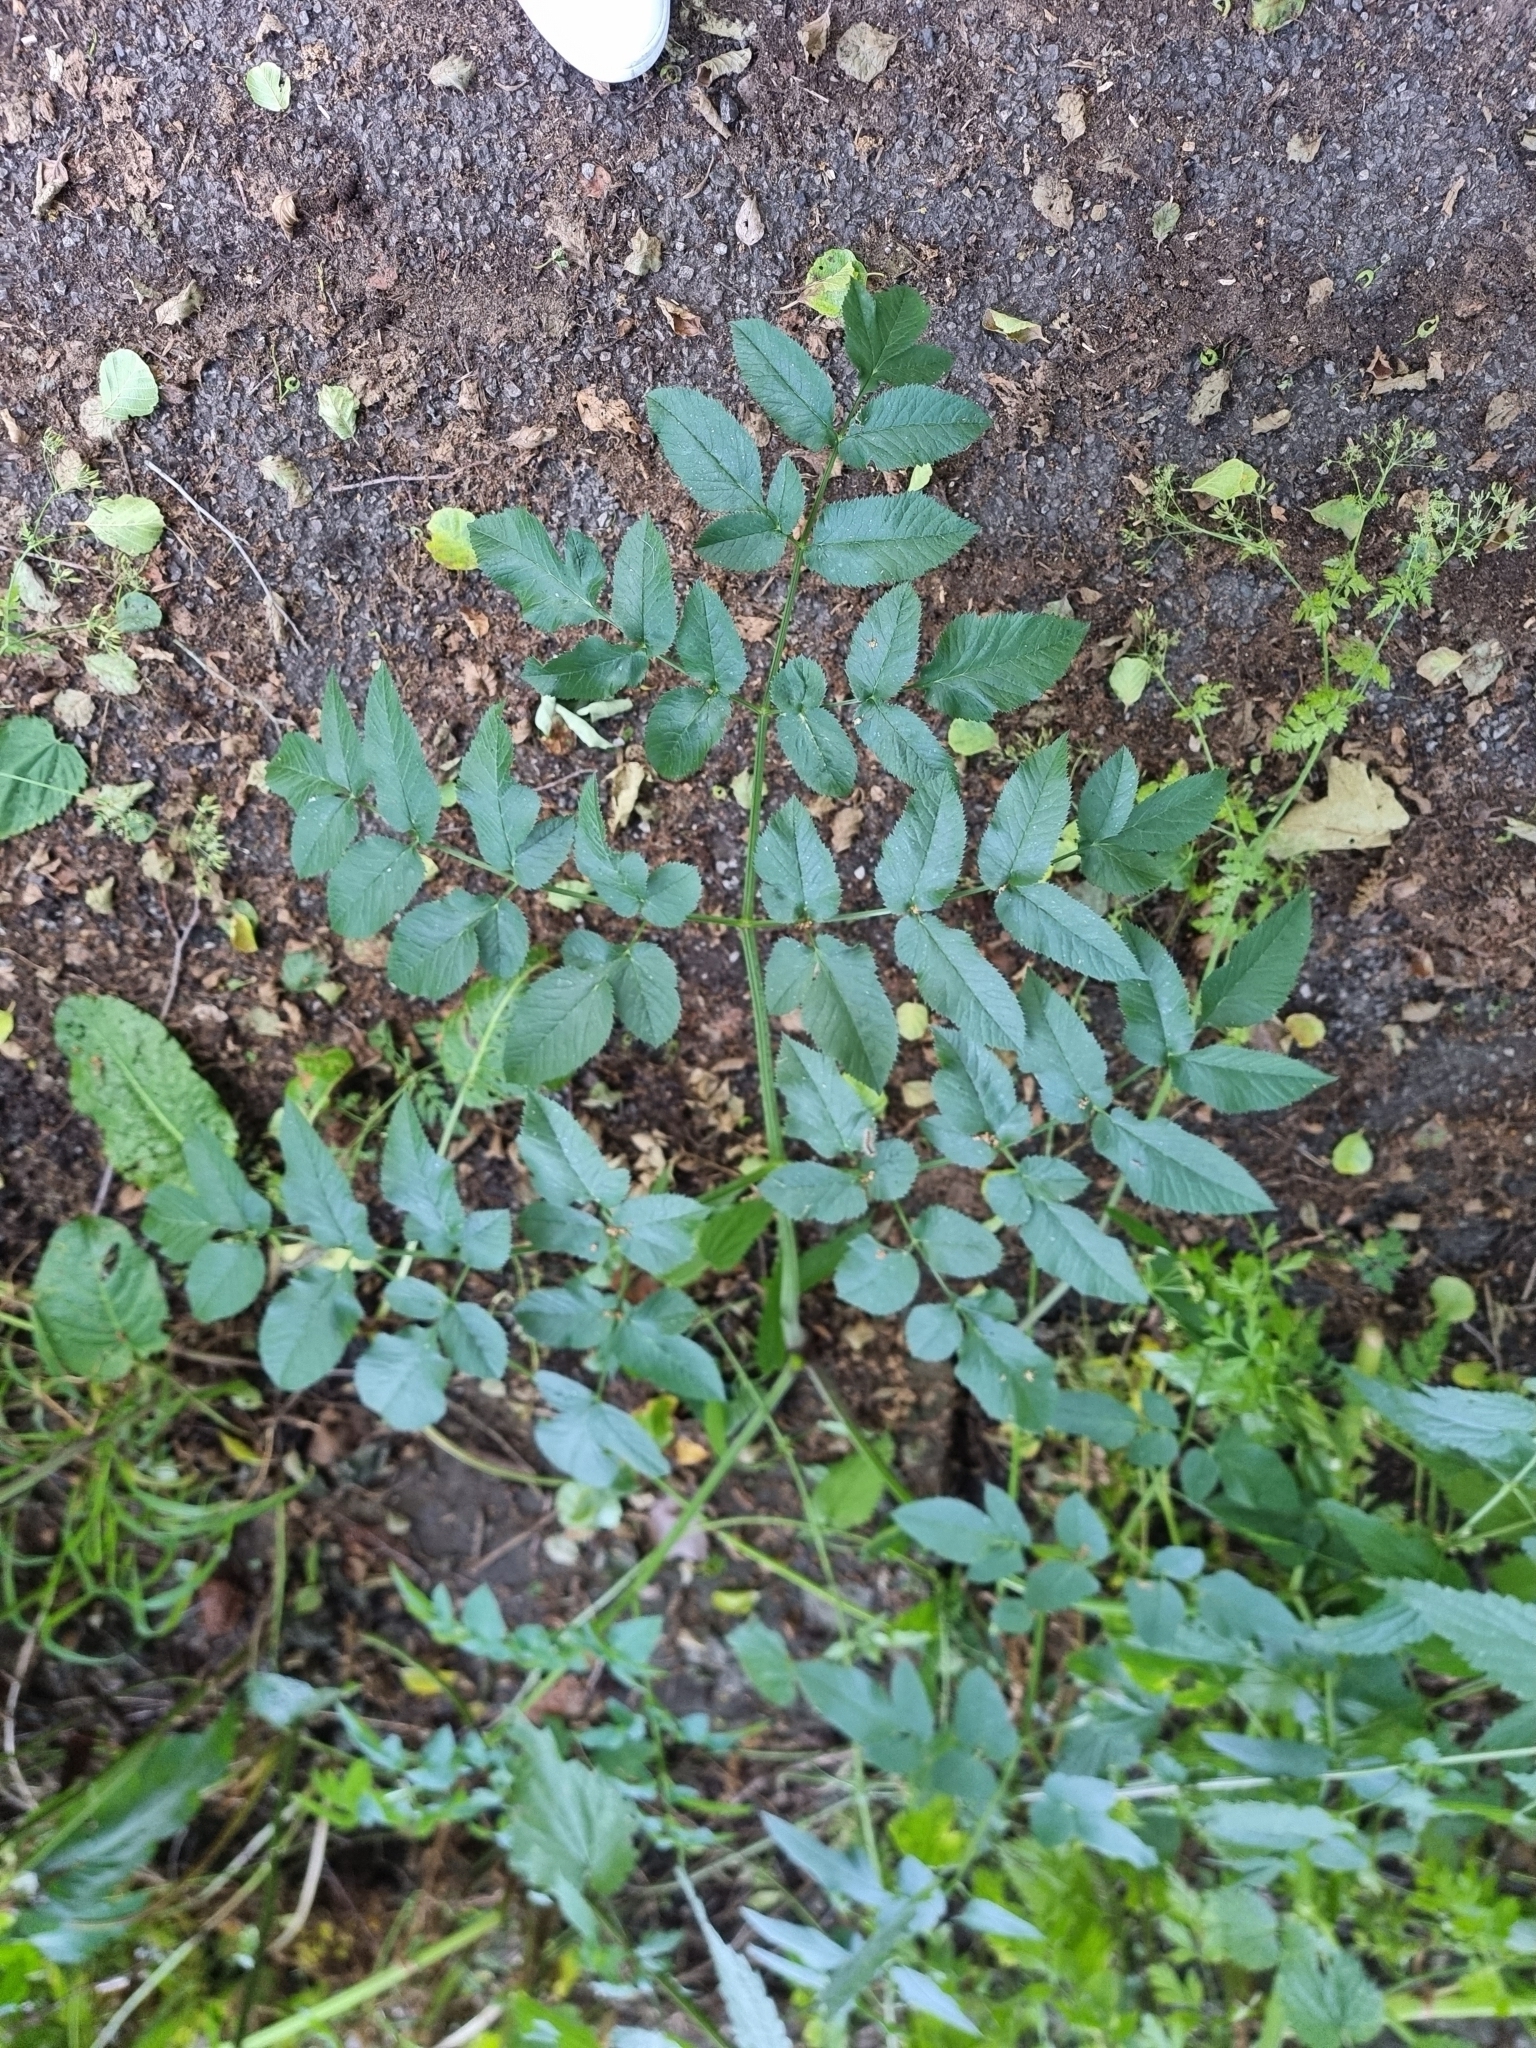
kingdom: Plantae
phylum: Tracheophyta
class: Magnoliopsida
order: Apiales
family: Apiaceae
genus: Angelica
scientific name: Angelica sylvestris
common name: Wild angelica
